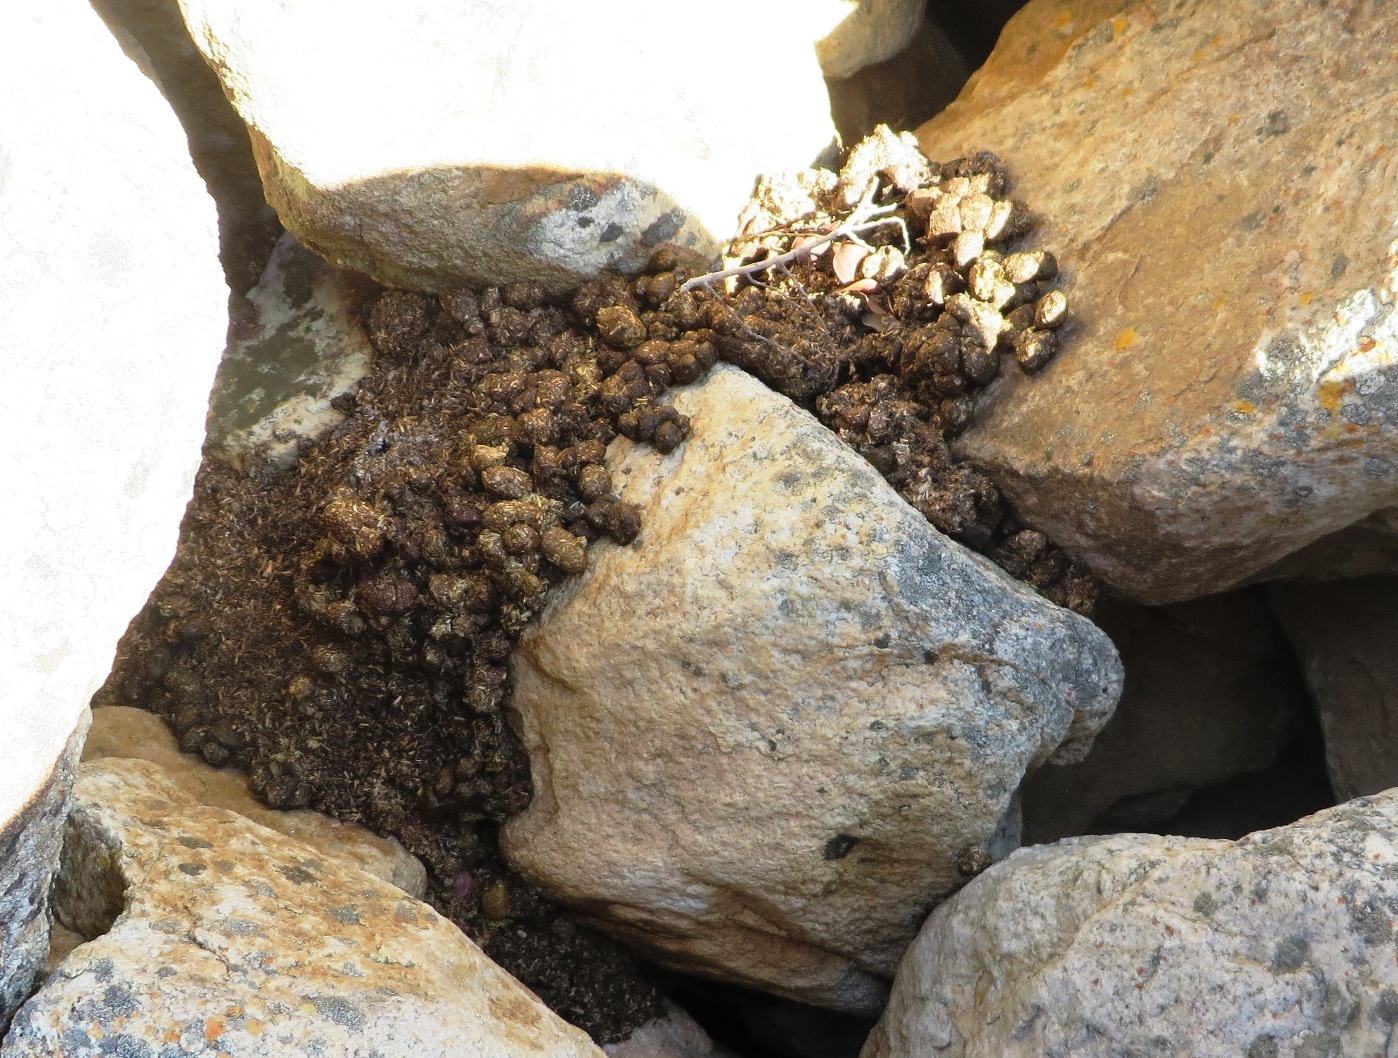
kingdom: Animalia
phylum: Chordata
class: Mammalia
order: Hyracoidea
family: Procaviidae
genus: Procavia
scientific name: Procavia capensis
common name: Rock hyrax
